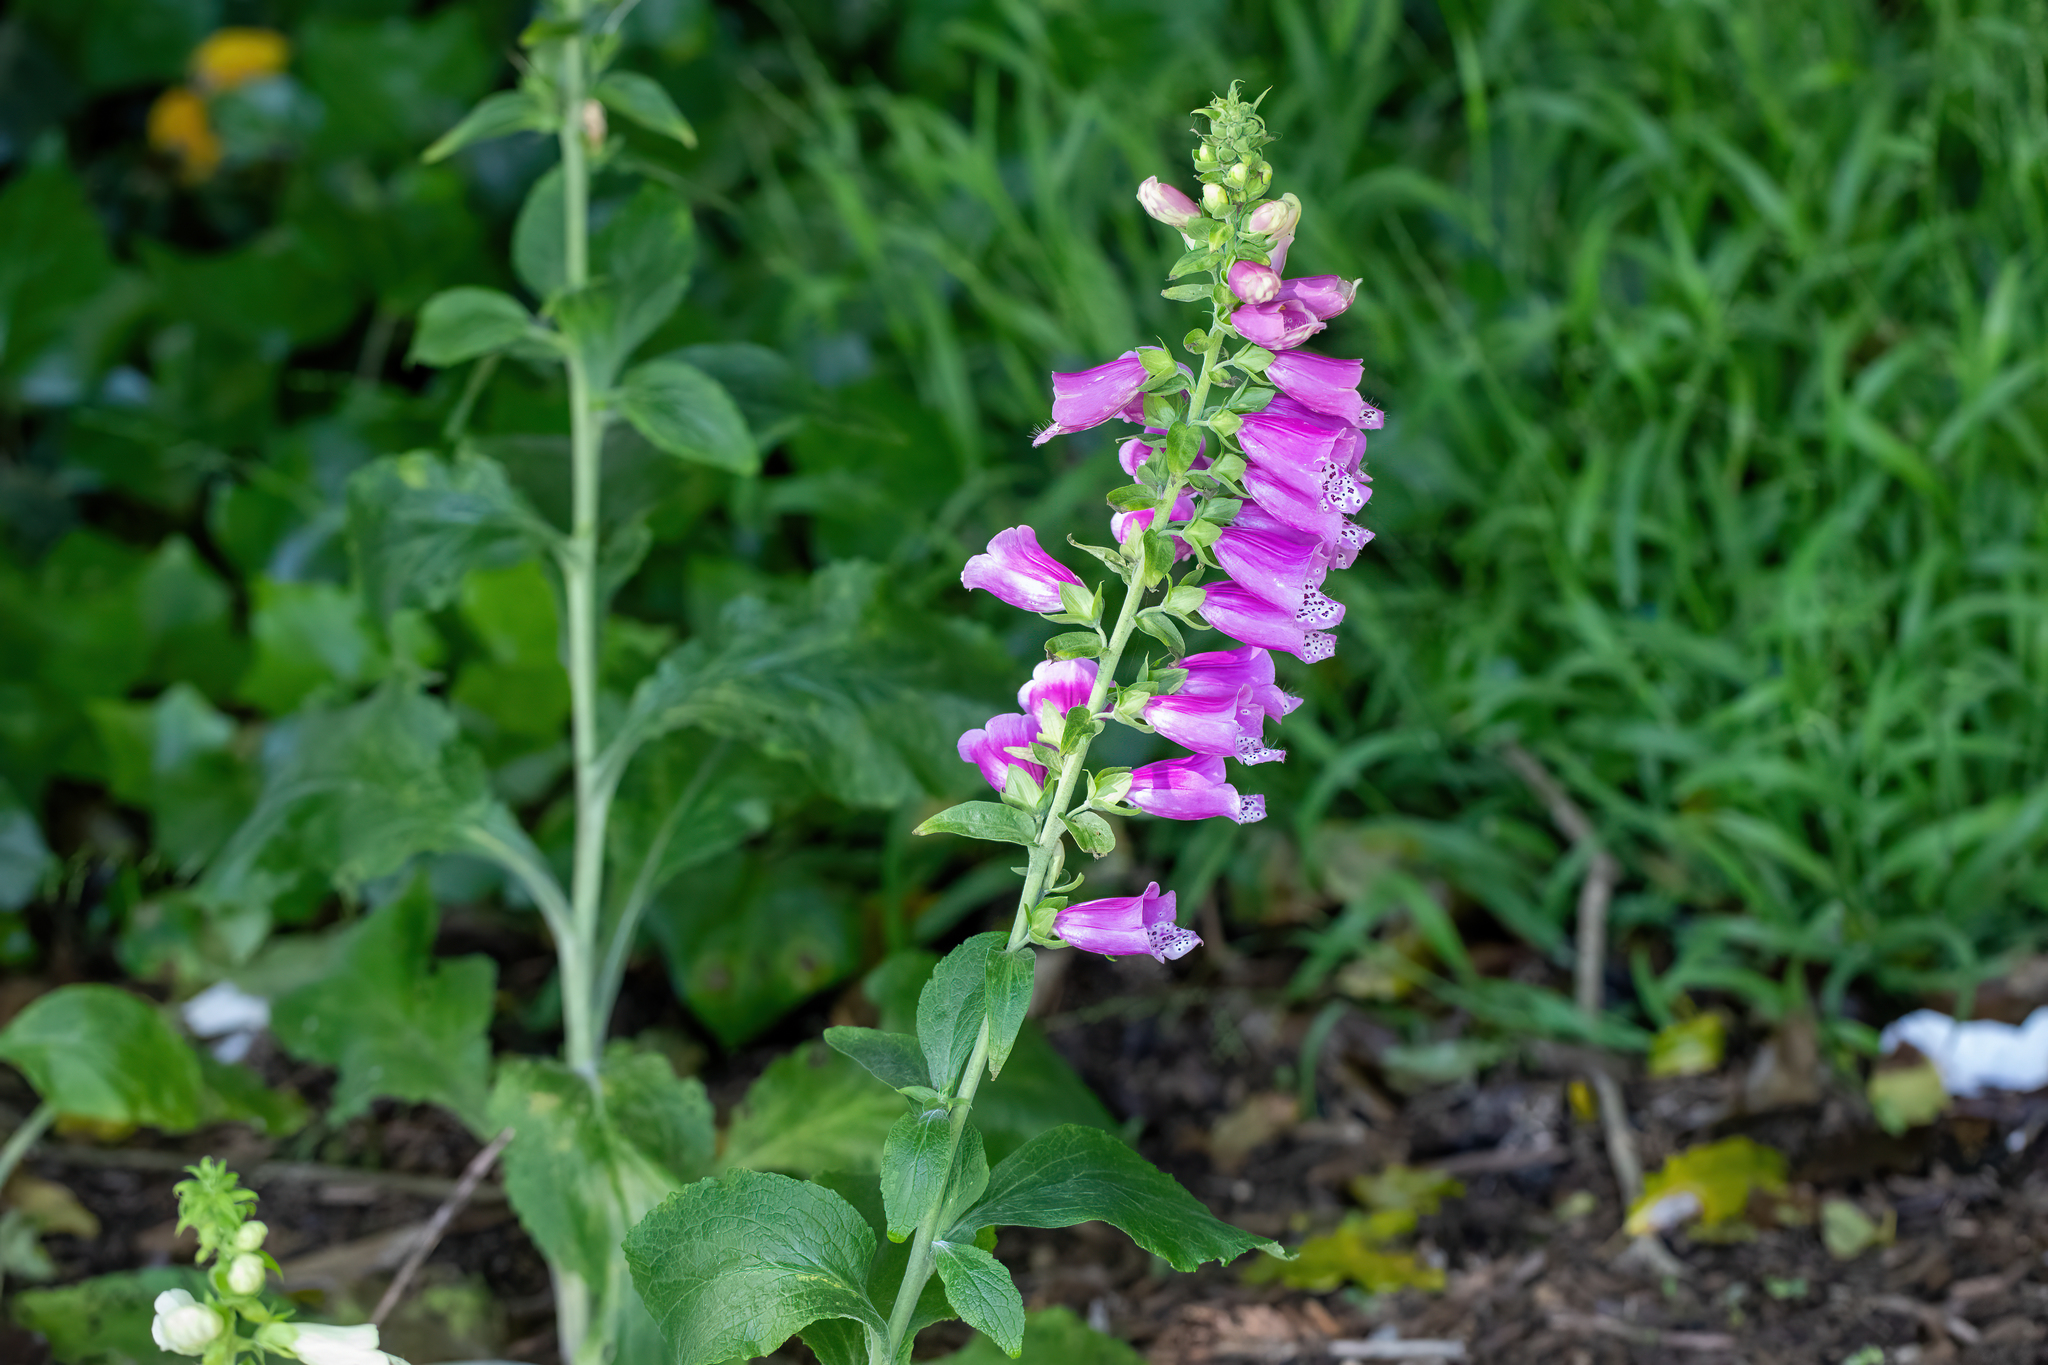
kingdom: Plantae
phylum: Tracheophyta
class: Magnoliopsida
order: Lamiales
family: Plantaginaceae
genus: Digitalis
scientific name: Digitalis purpurea
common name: Foxglove
